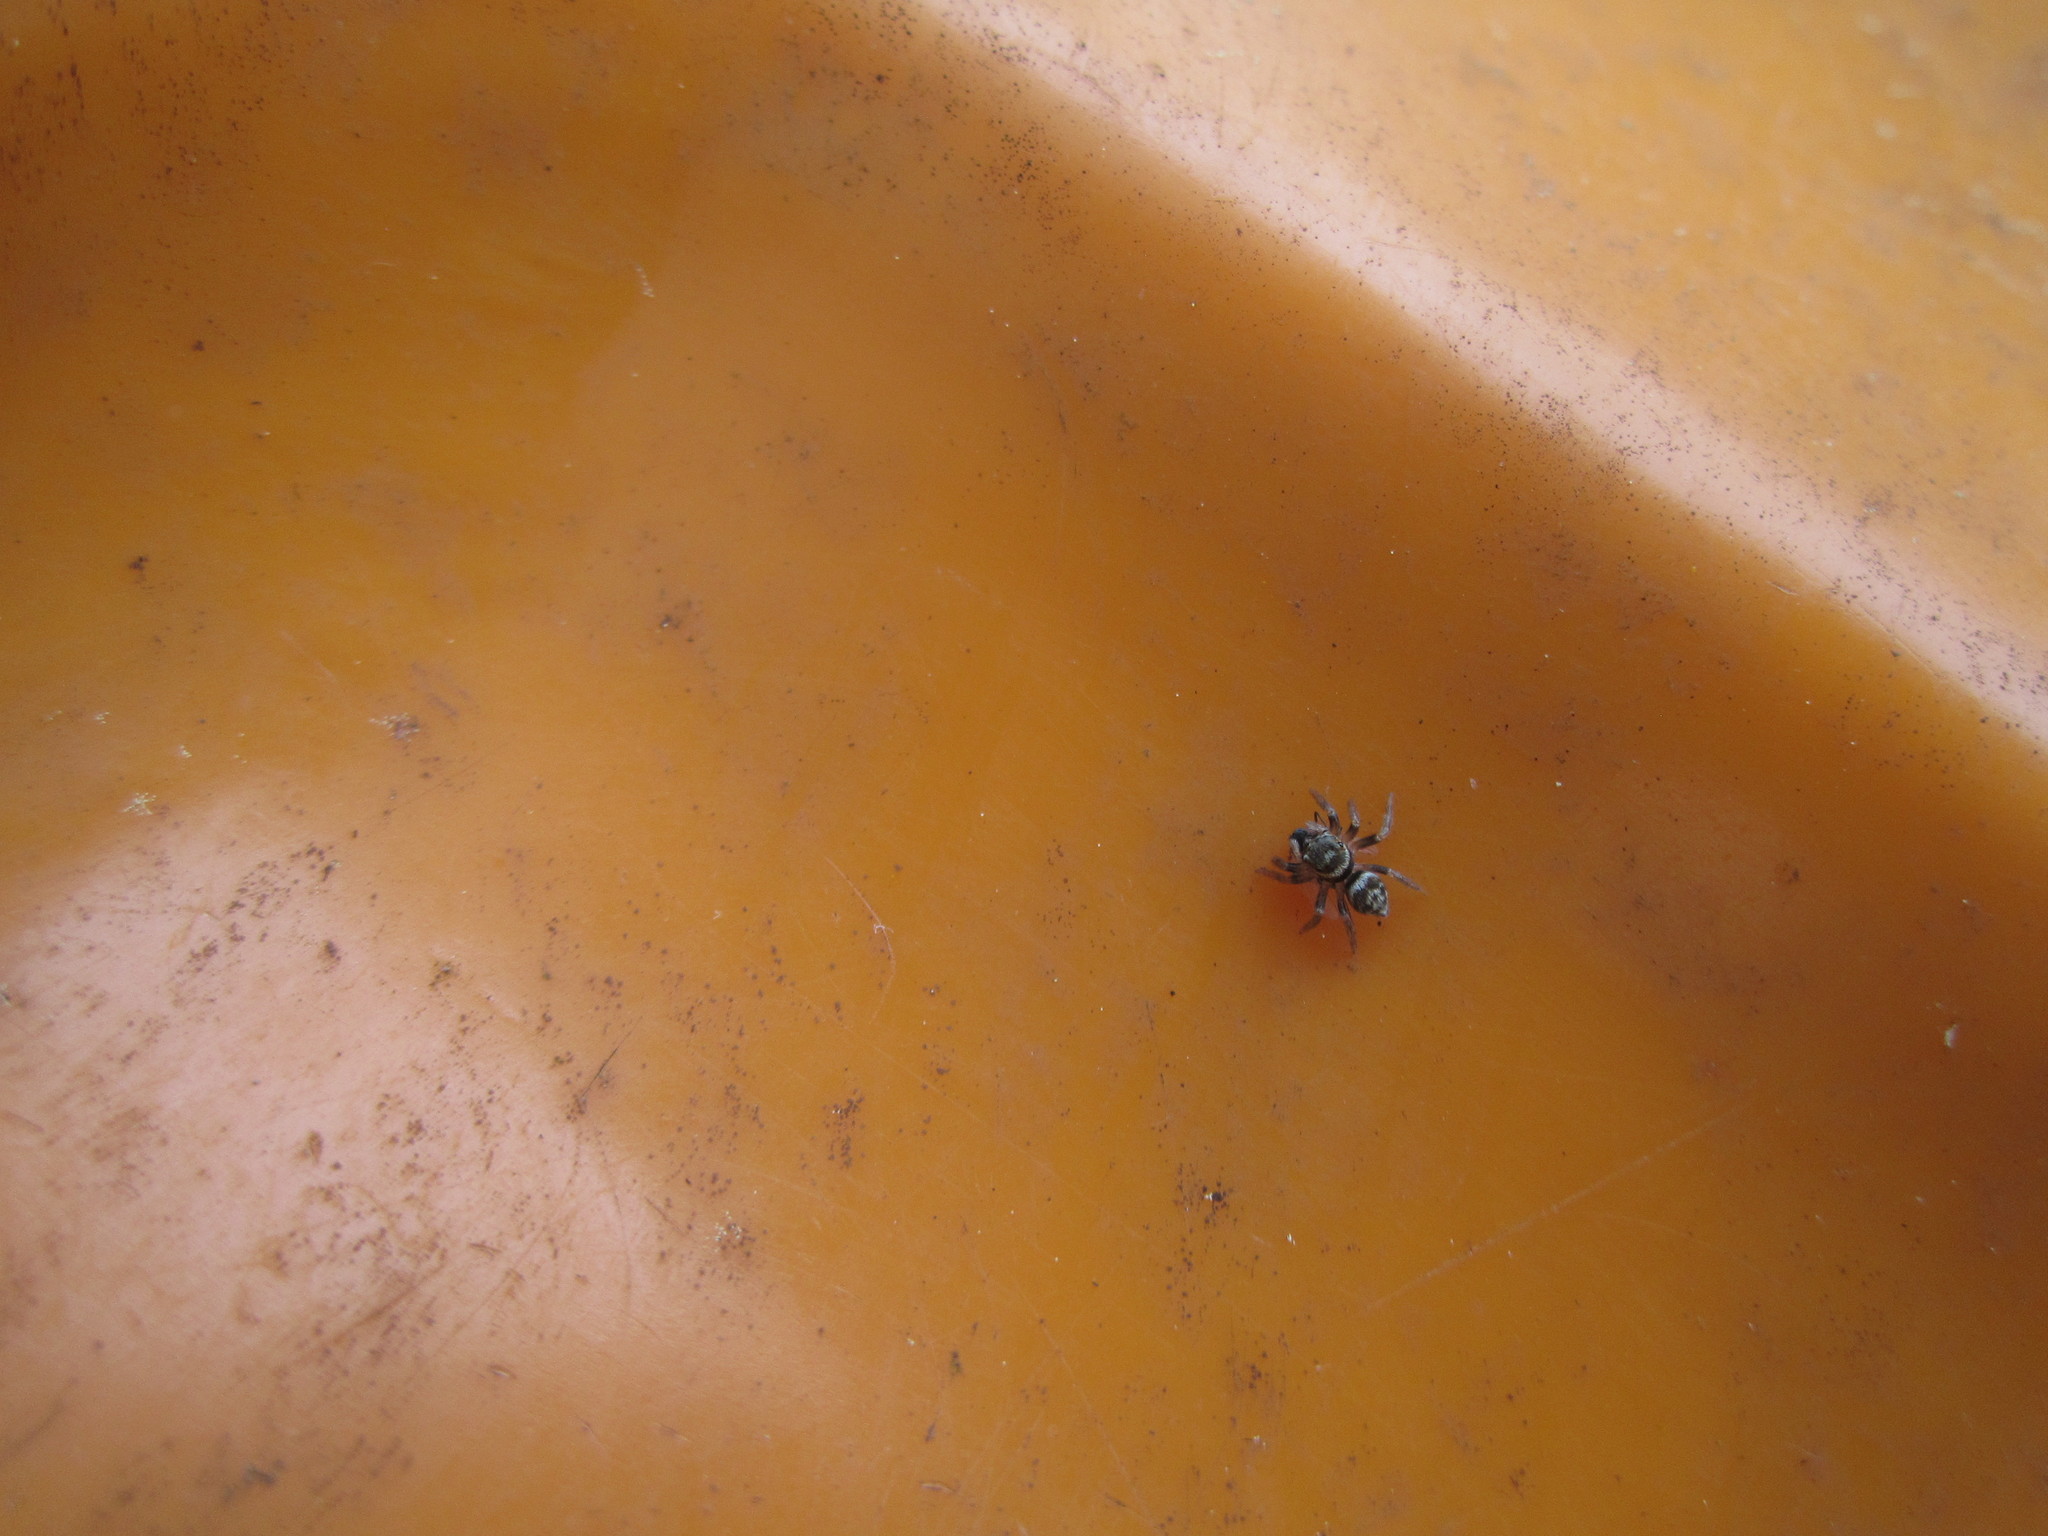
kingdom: Animalia
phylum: Arthropoda
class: Arachnida
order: Araneae
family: Salticidae
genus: Opisthoncus
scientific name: Opisthoncus polyphemus
